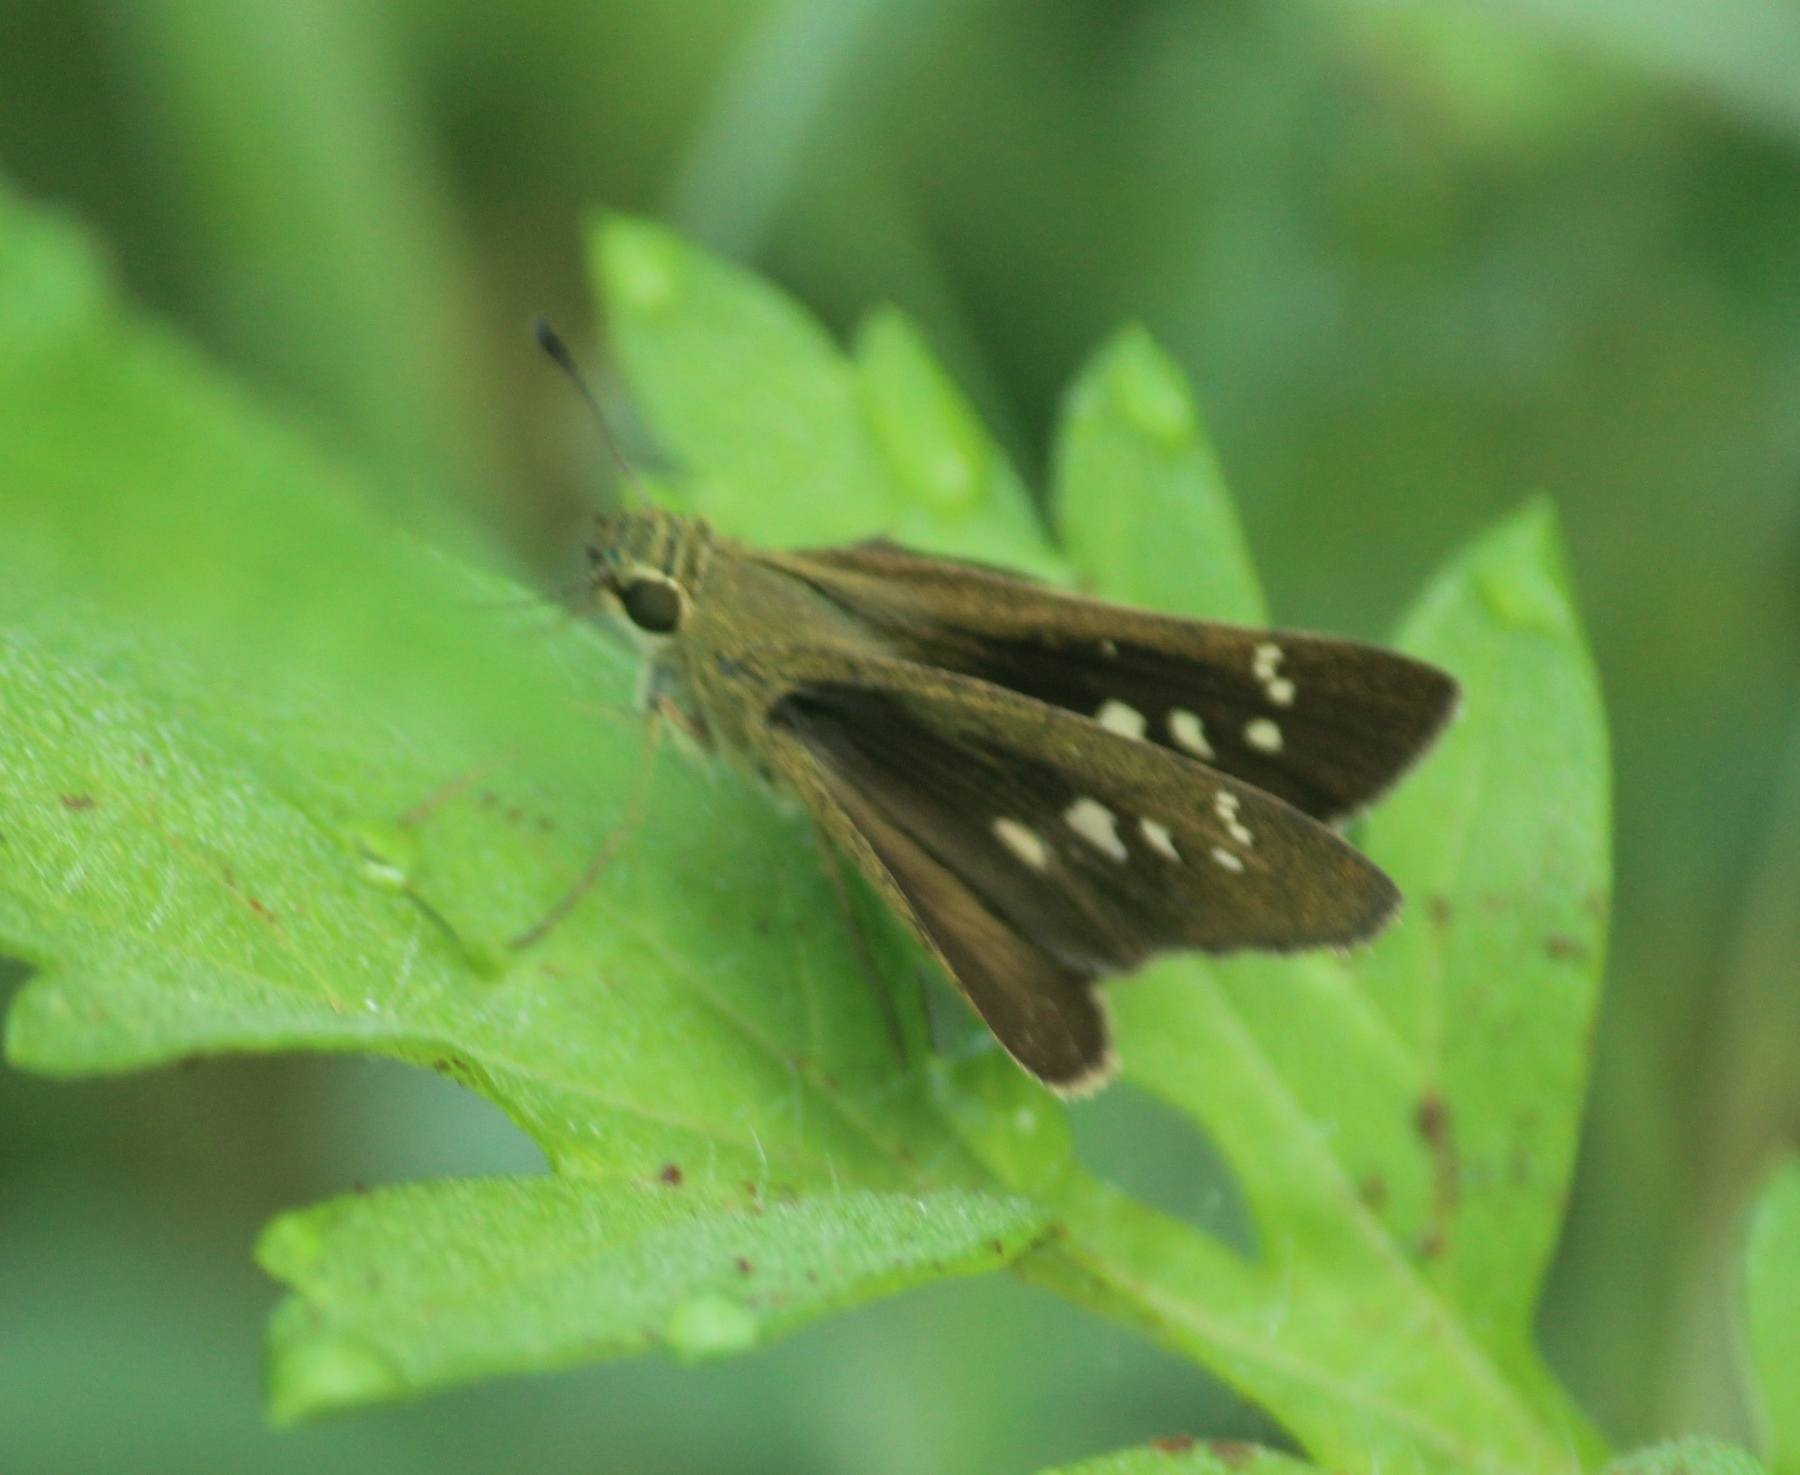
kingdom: Animalia
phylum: Arthropoda
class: Insecta
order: Lepidoptera
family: Hesperiidae
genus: Parnara
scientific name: Parnara naso
